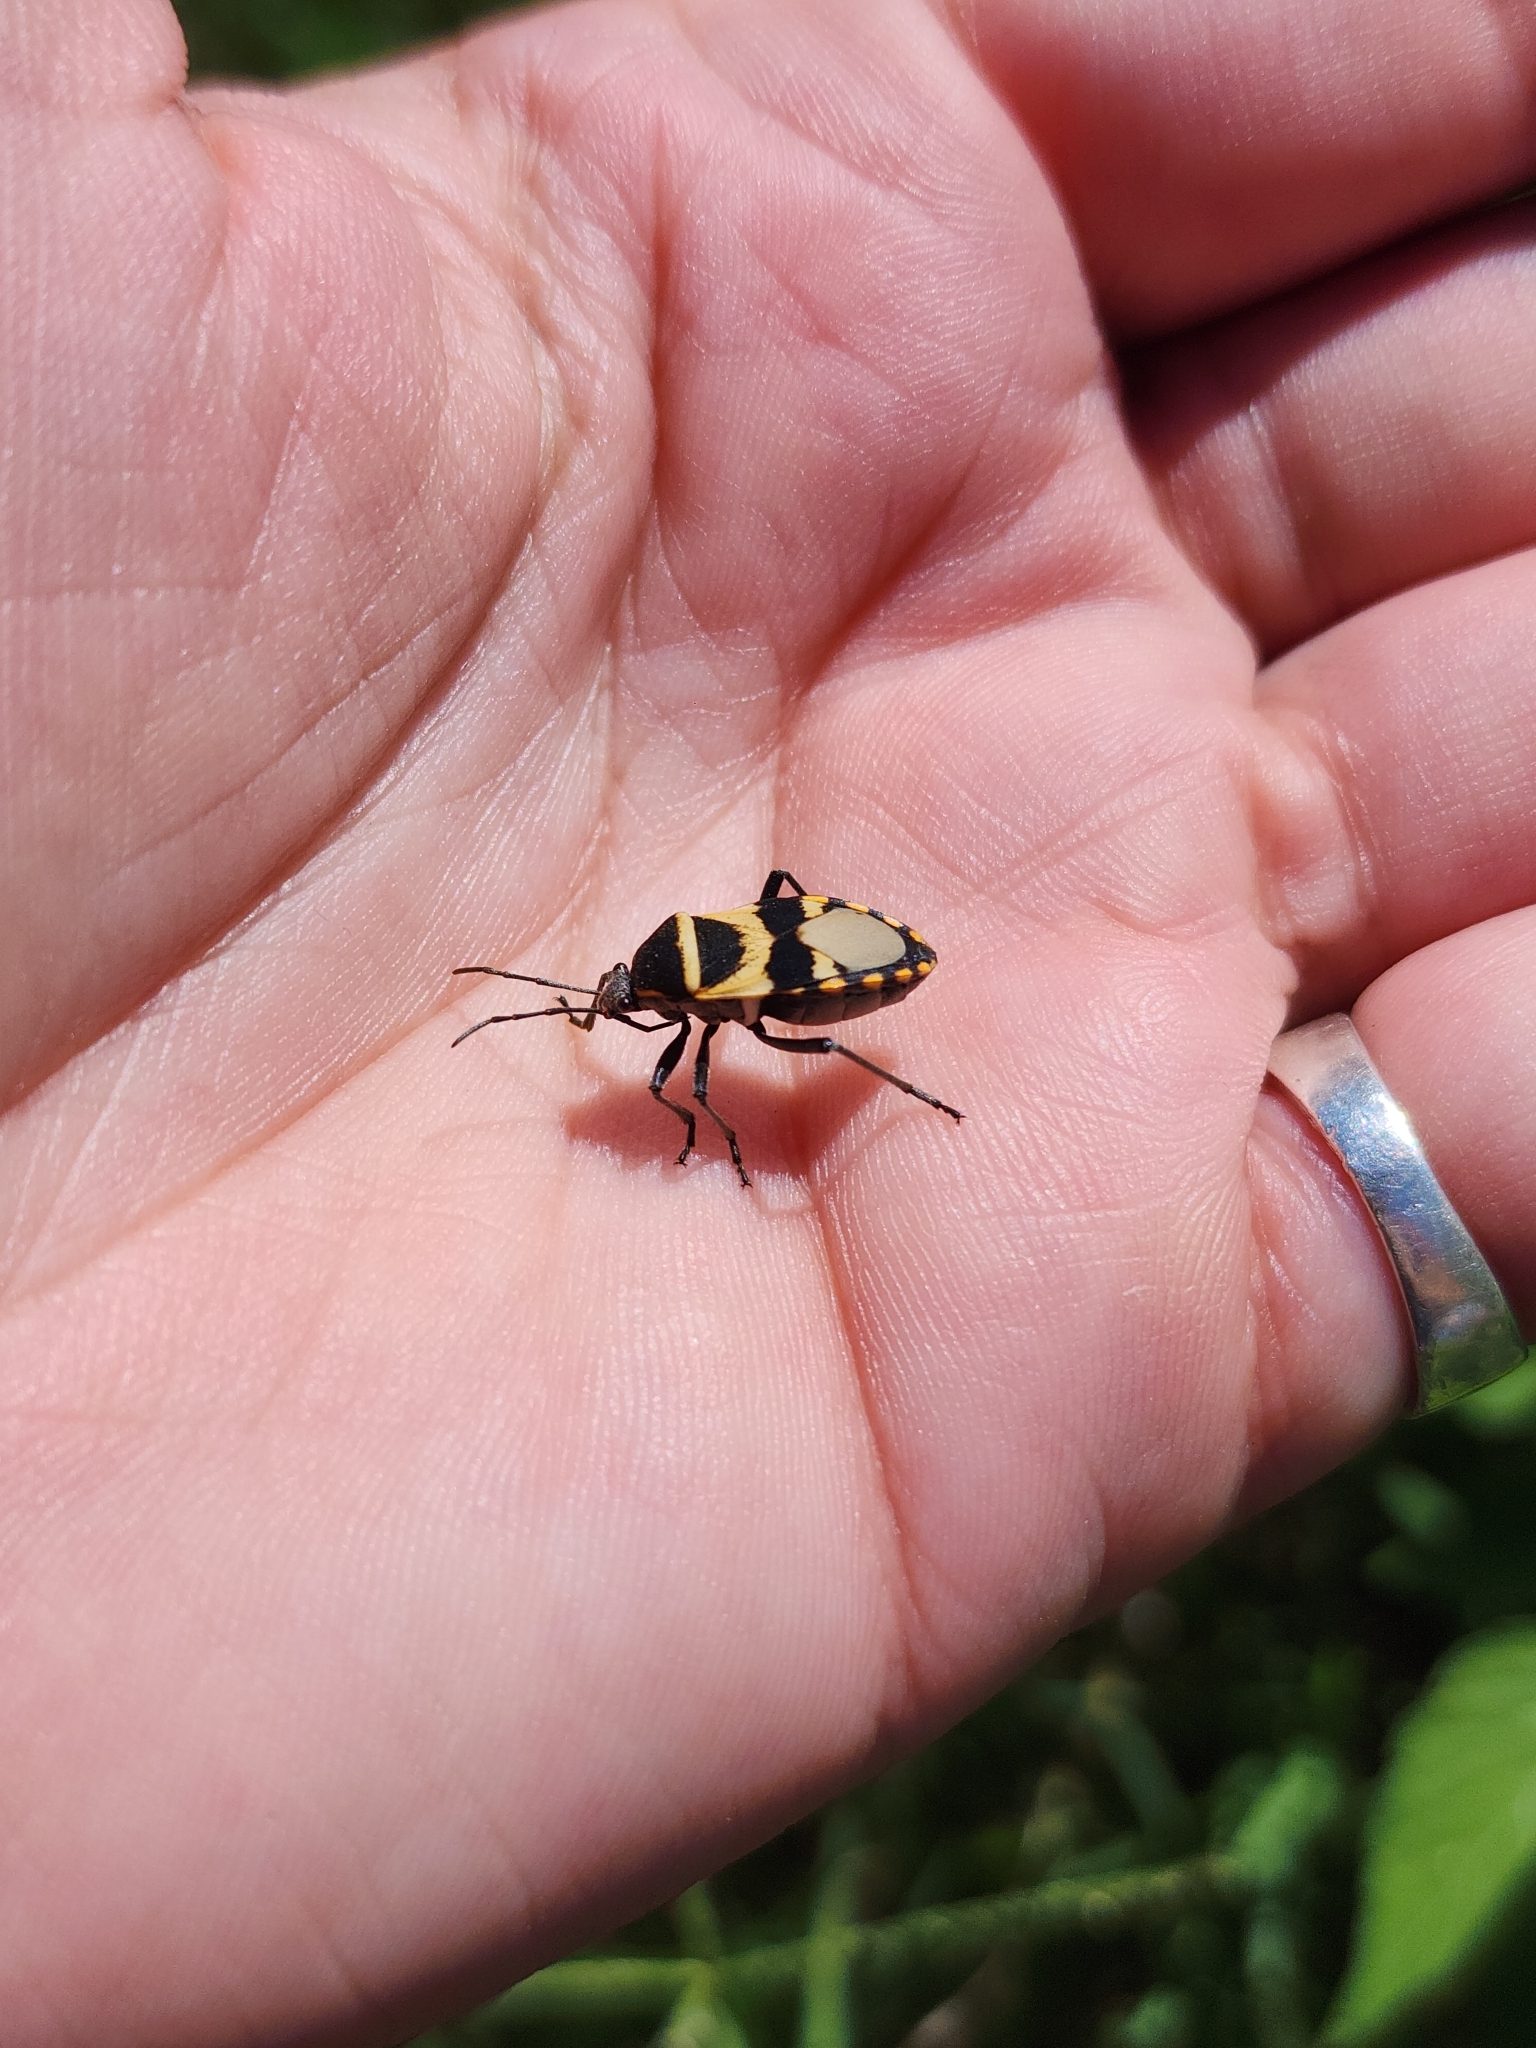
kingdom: Animalia
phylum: Arthropoda
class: Insecta
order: Hemiptera
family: Largidae
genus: Largus
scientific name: Largus fasciatus
